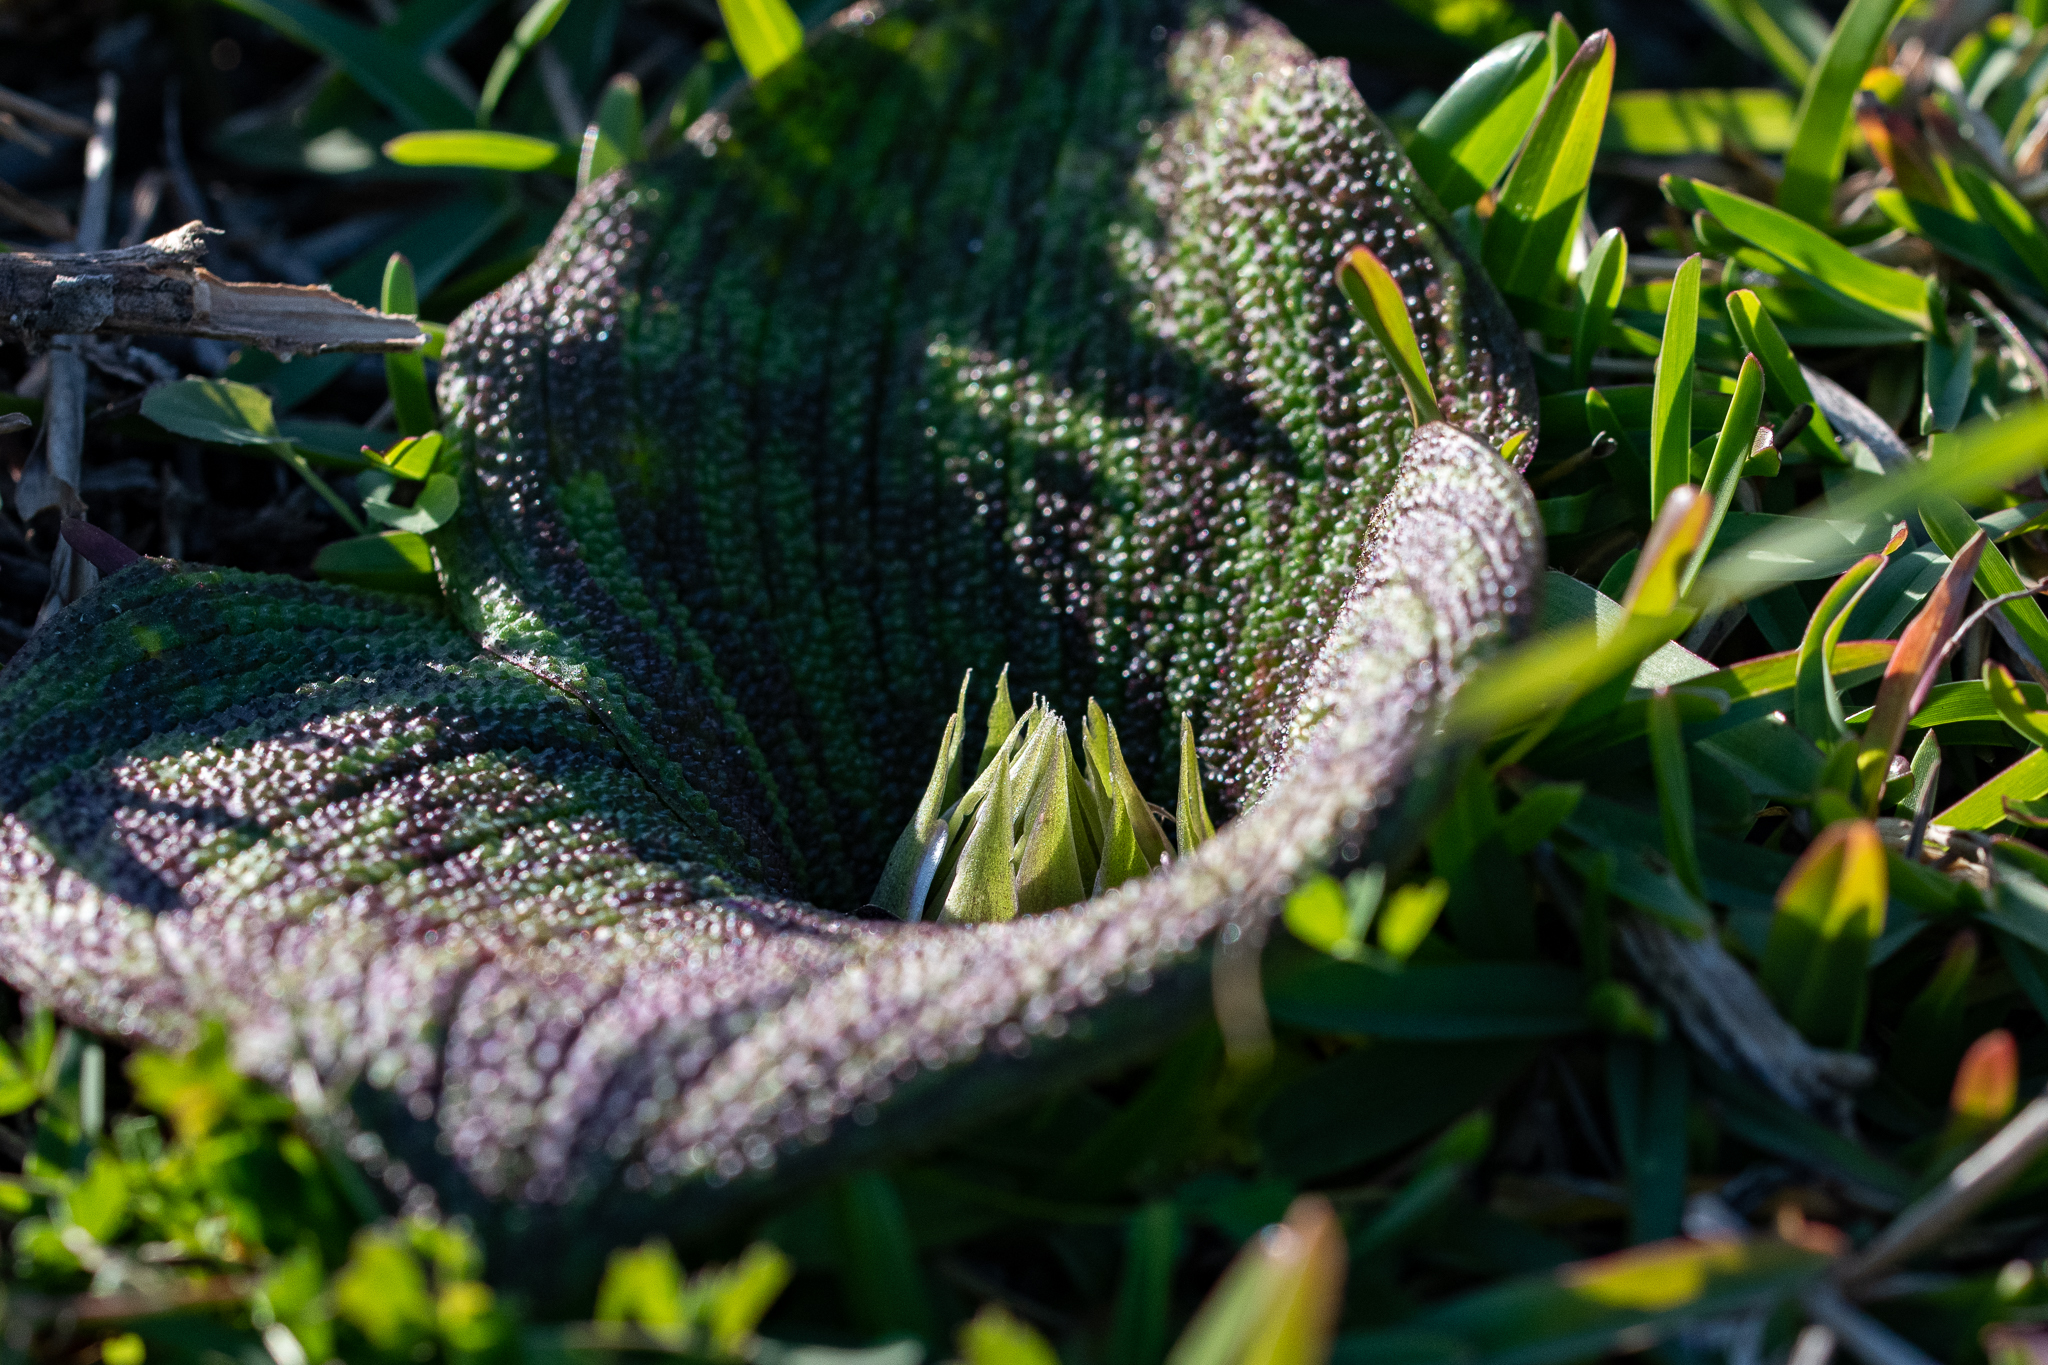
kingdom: Plantae
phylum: Tracheophyta
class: Liliopsida
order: Asparagales
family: Asparagaceae
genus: Massonia
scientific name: Massonia pustulata
